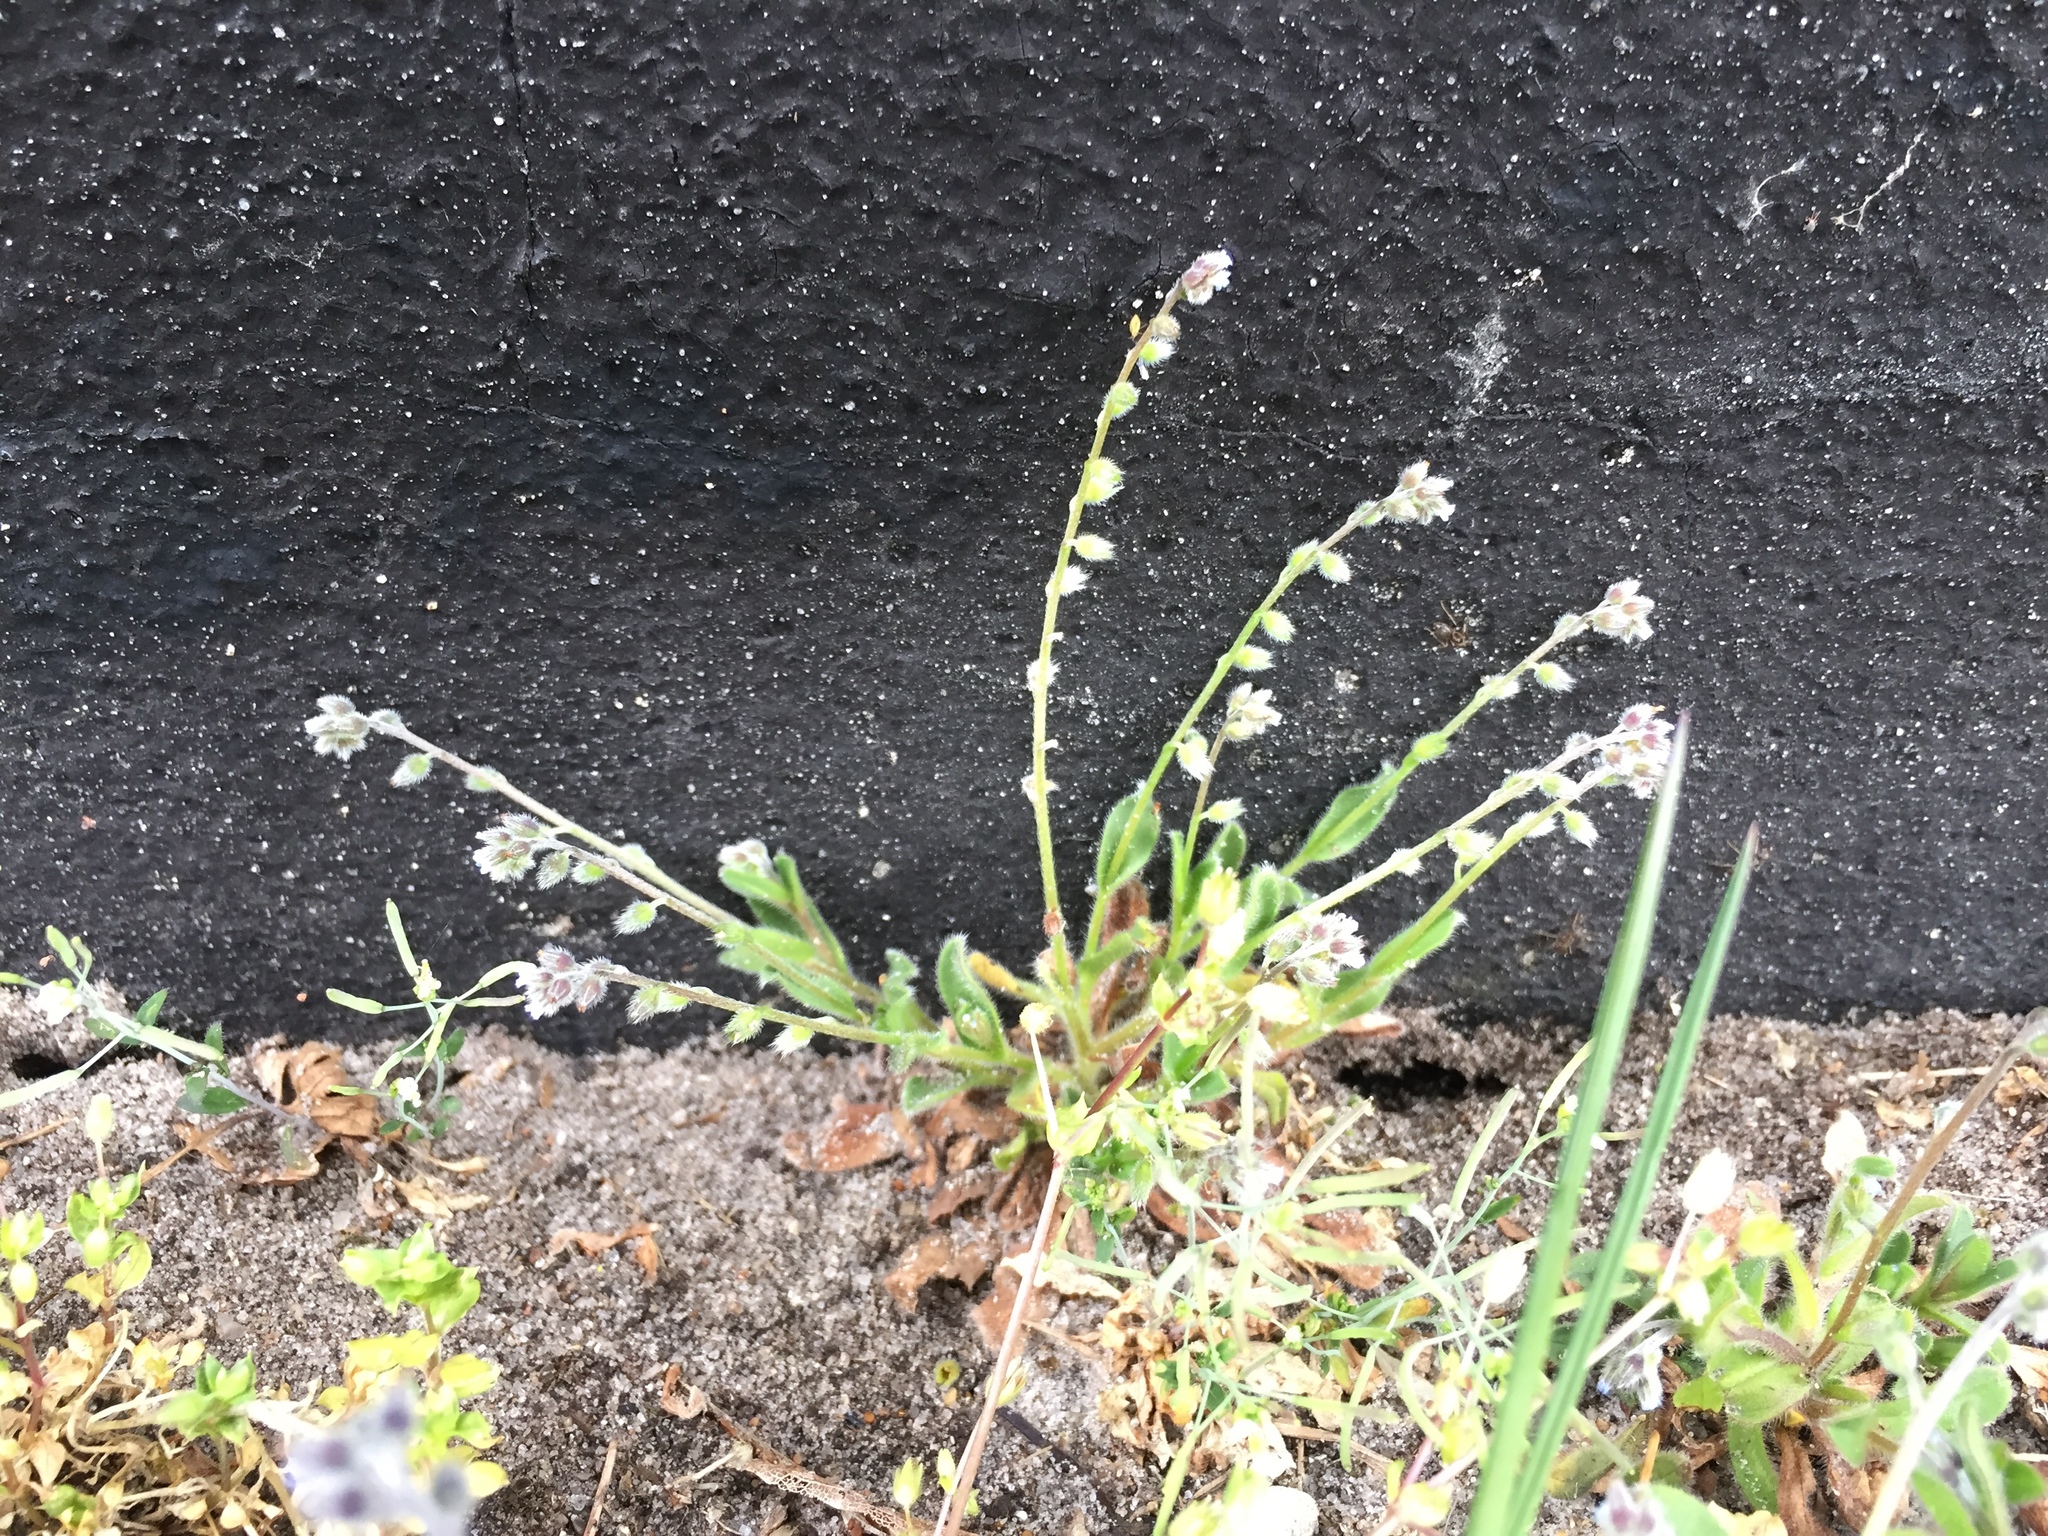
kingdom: Plantae
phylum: Tracheophyta
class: Magnoliopsida
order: Boraginales
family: Boraginaceae
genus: Myosotis
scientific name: Myosotis discolor
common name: Changing forget-me-not
